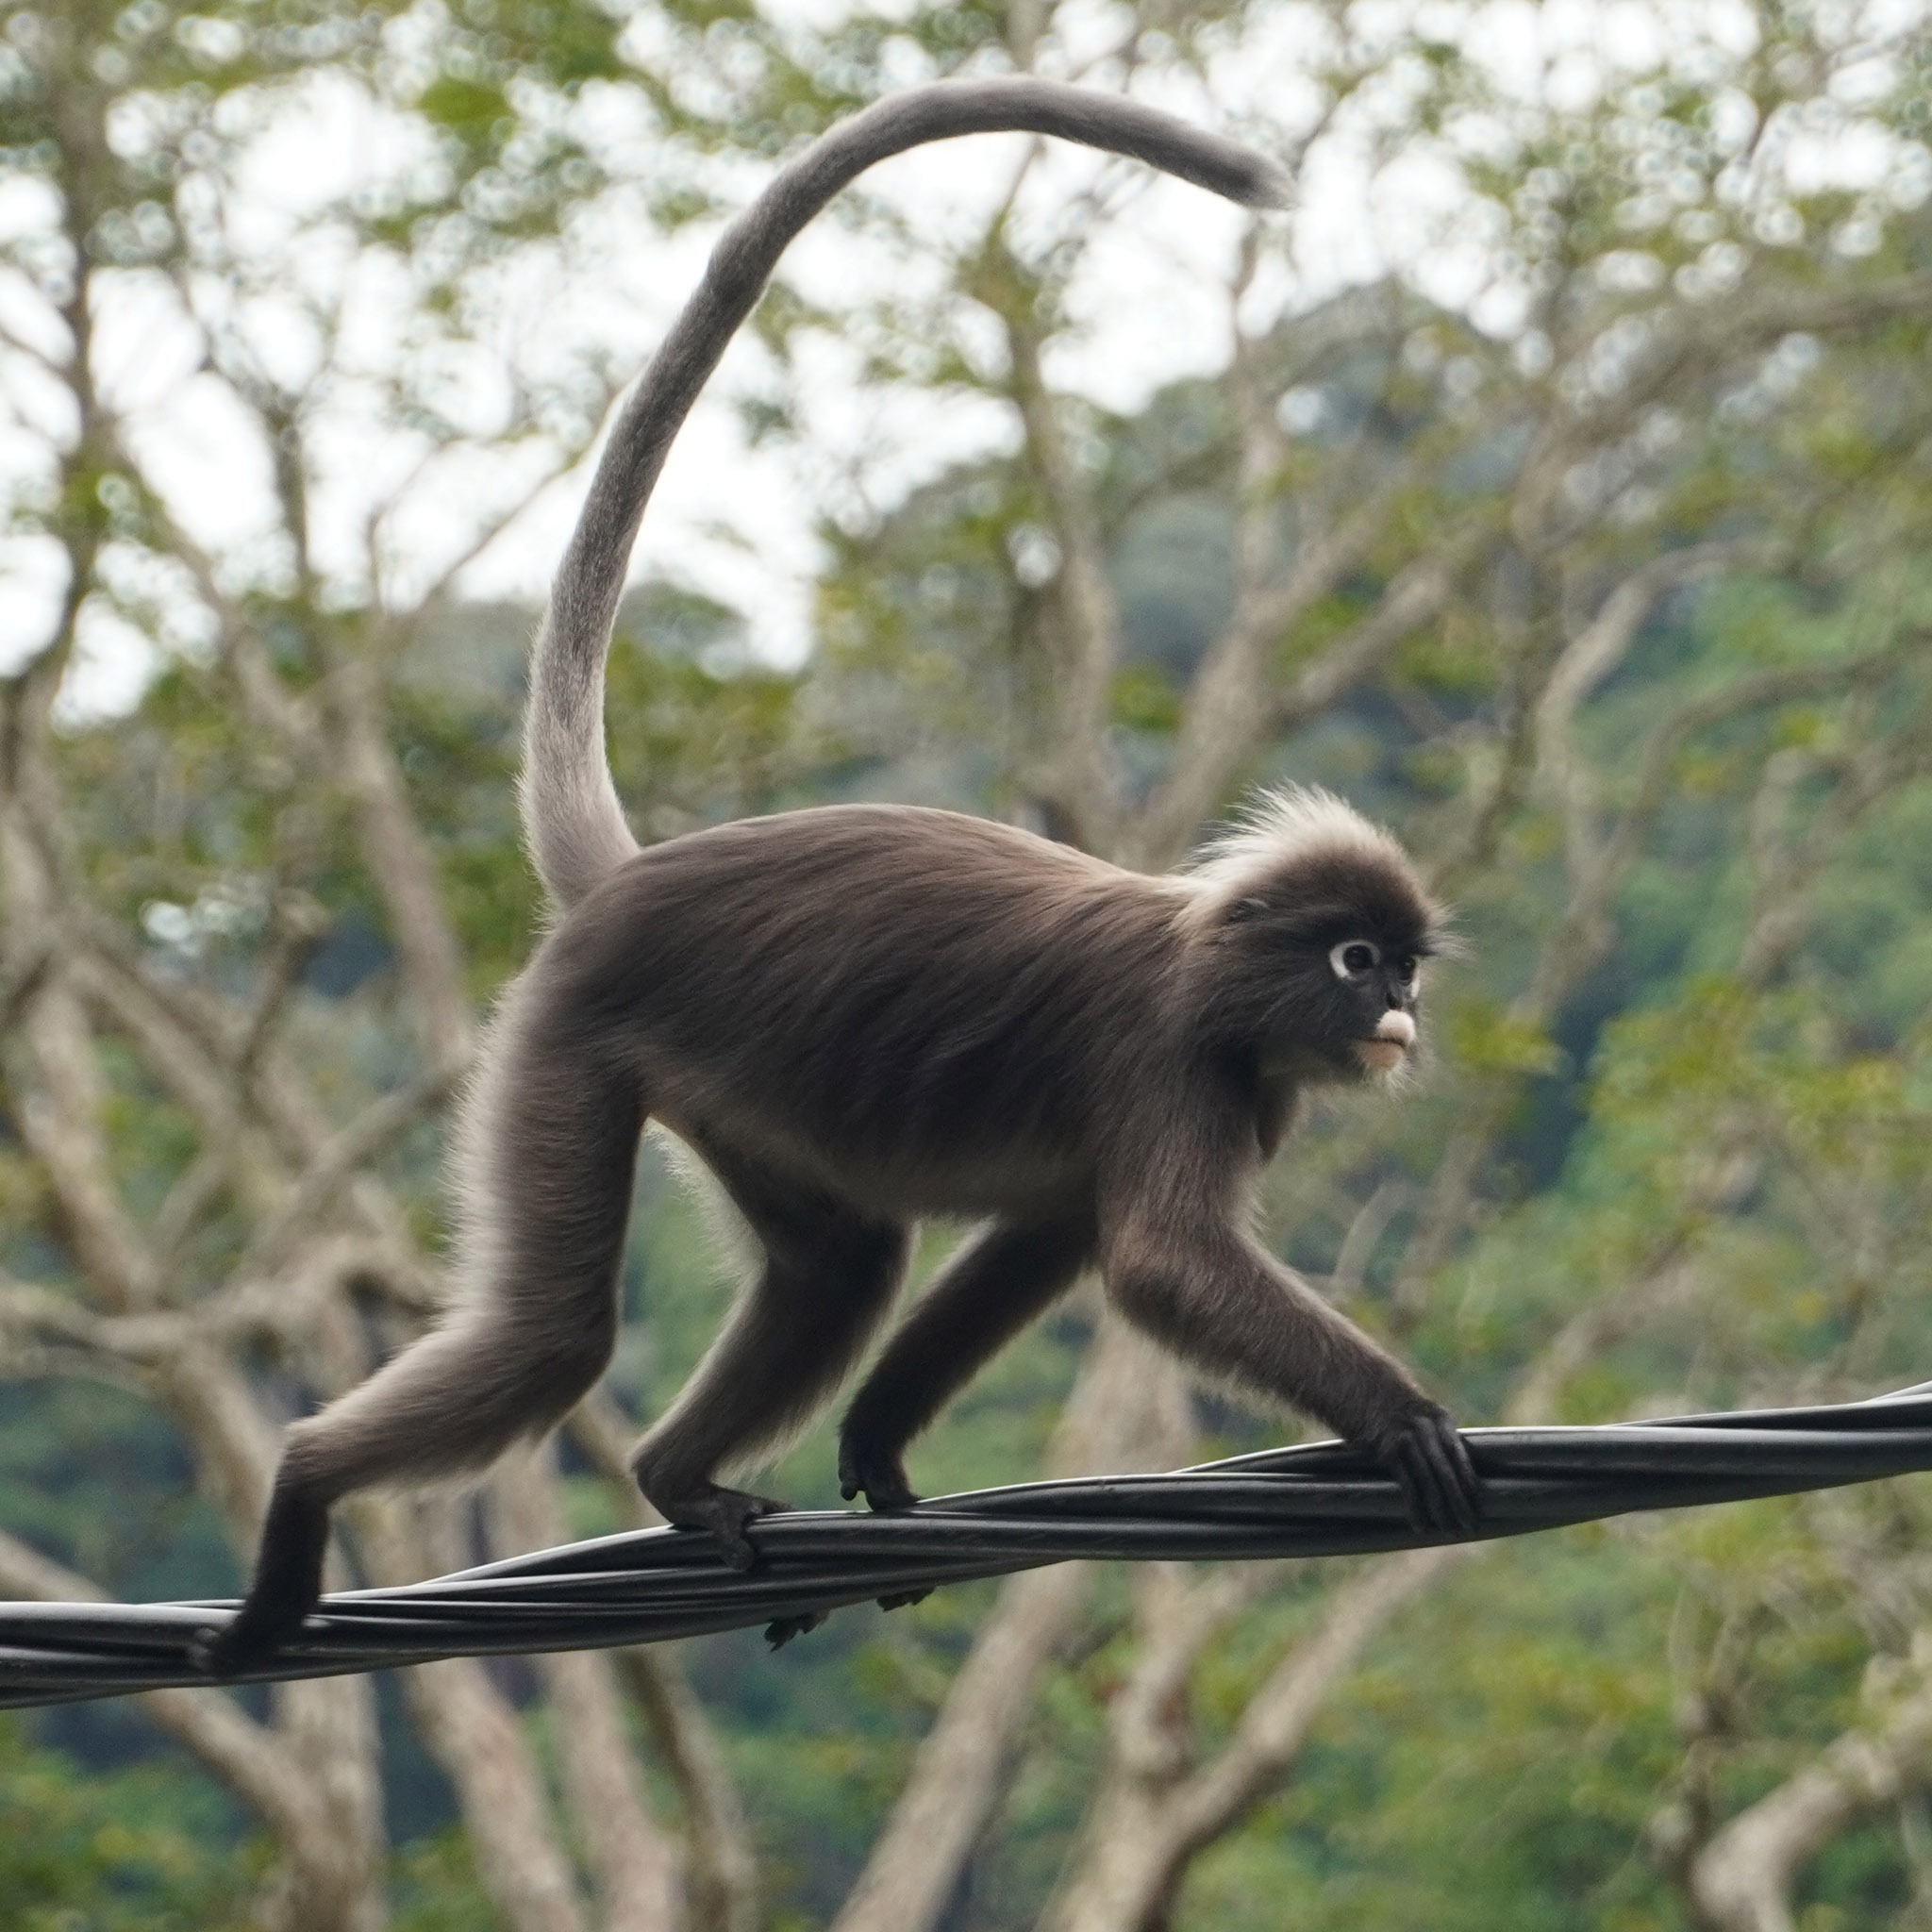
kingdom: Animalia
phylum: Chordata
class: Mammalia
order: Primates
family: Cercopithecidae
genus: Trachypithecus
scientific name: Trachypithecus obscurus
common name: Dusky leaf-monkey
